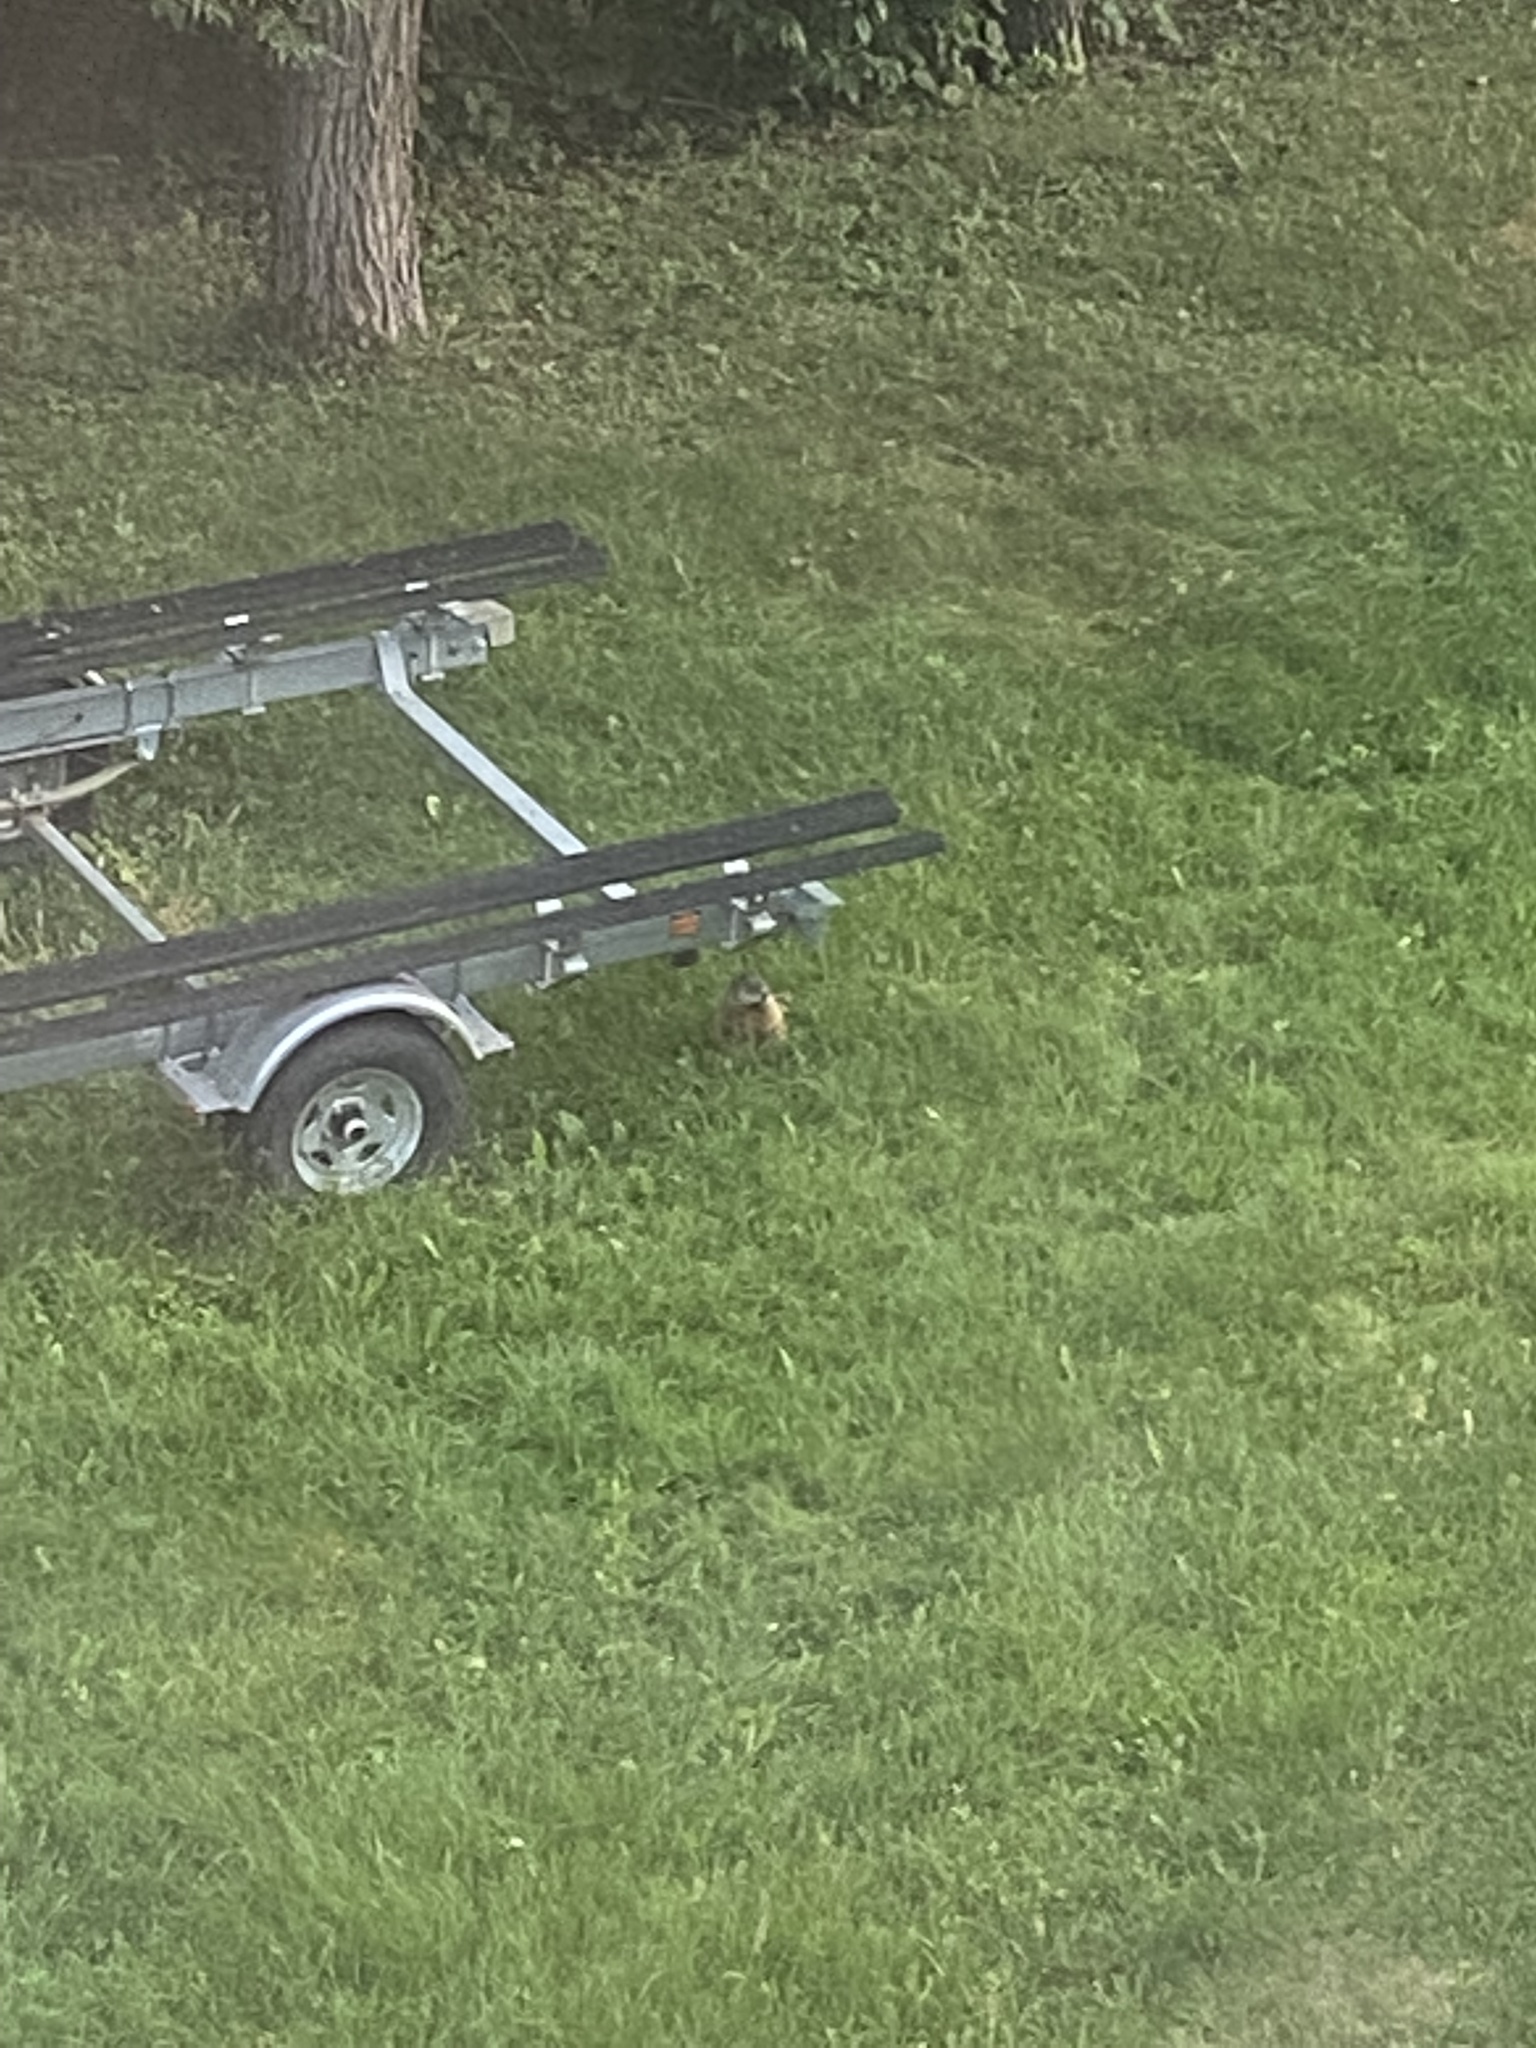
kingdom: Animalia
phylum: Chordata
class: Mammalia
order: Rodentia
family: Sciuridae
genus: Marmota
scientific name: Marmota monax
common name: Groundhog
